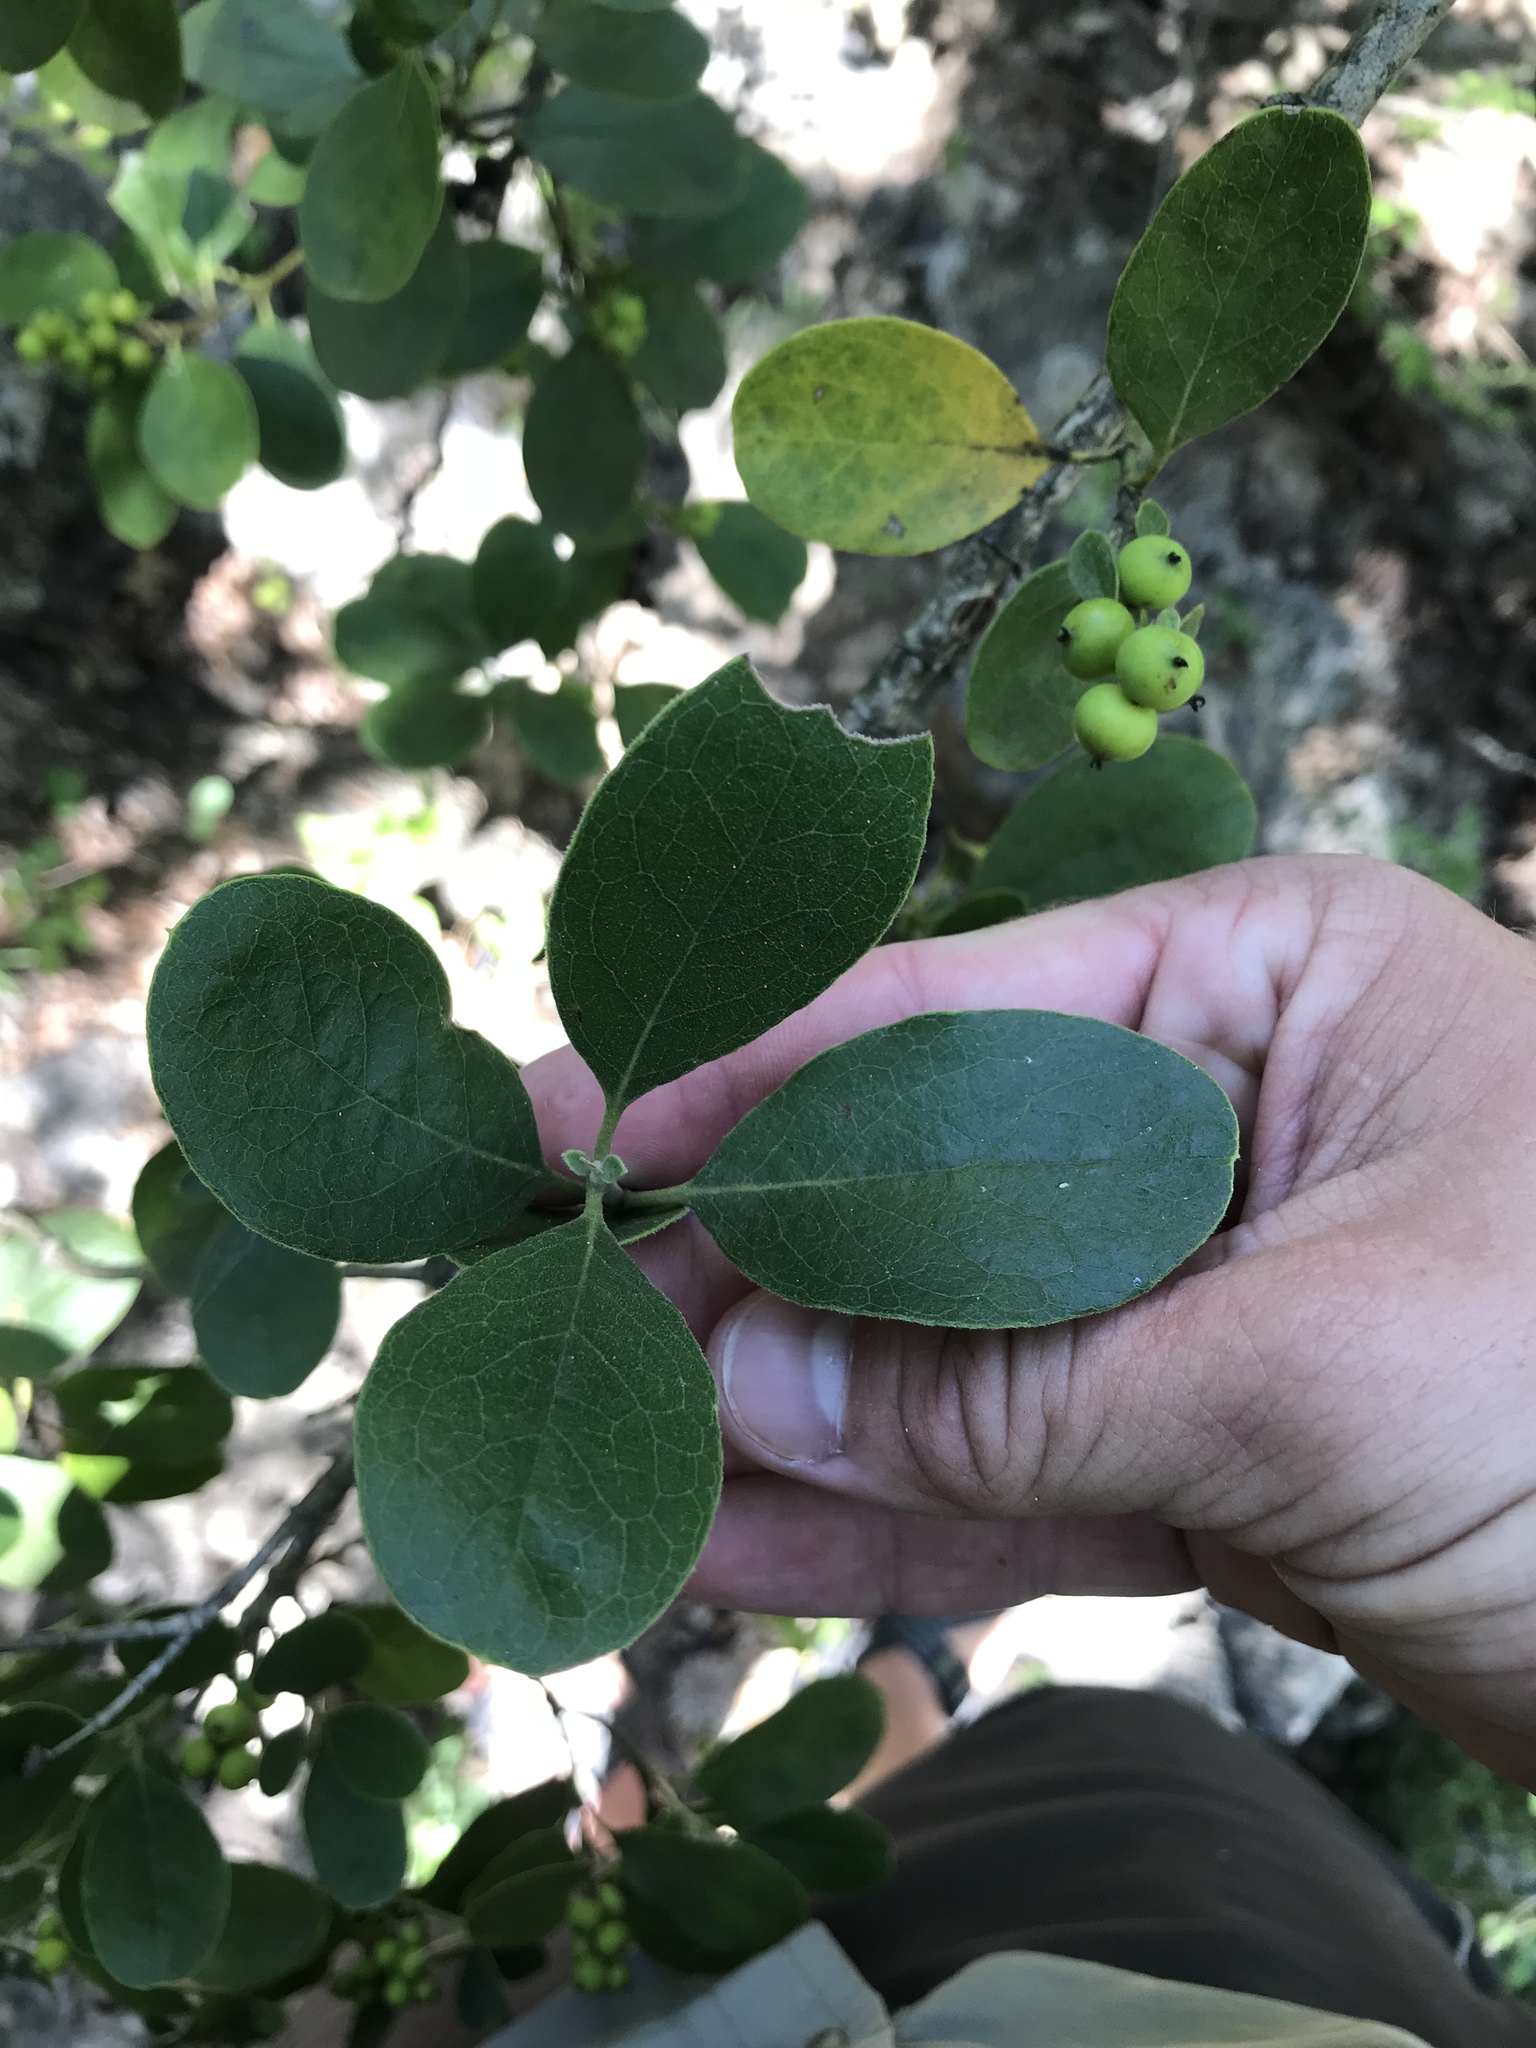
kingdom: Plantae
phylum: Tracheophyta
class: Magnoliopsida
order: Garryales
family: Garryaceae
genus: Garrya
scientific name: Garrya lindheimeri
